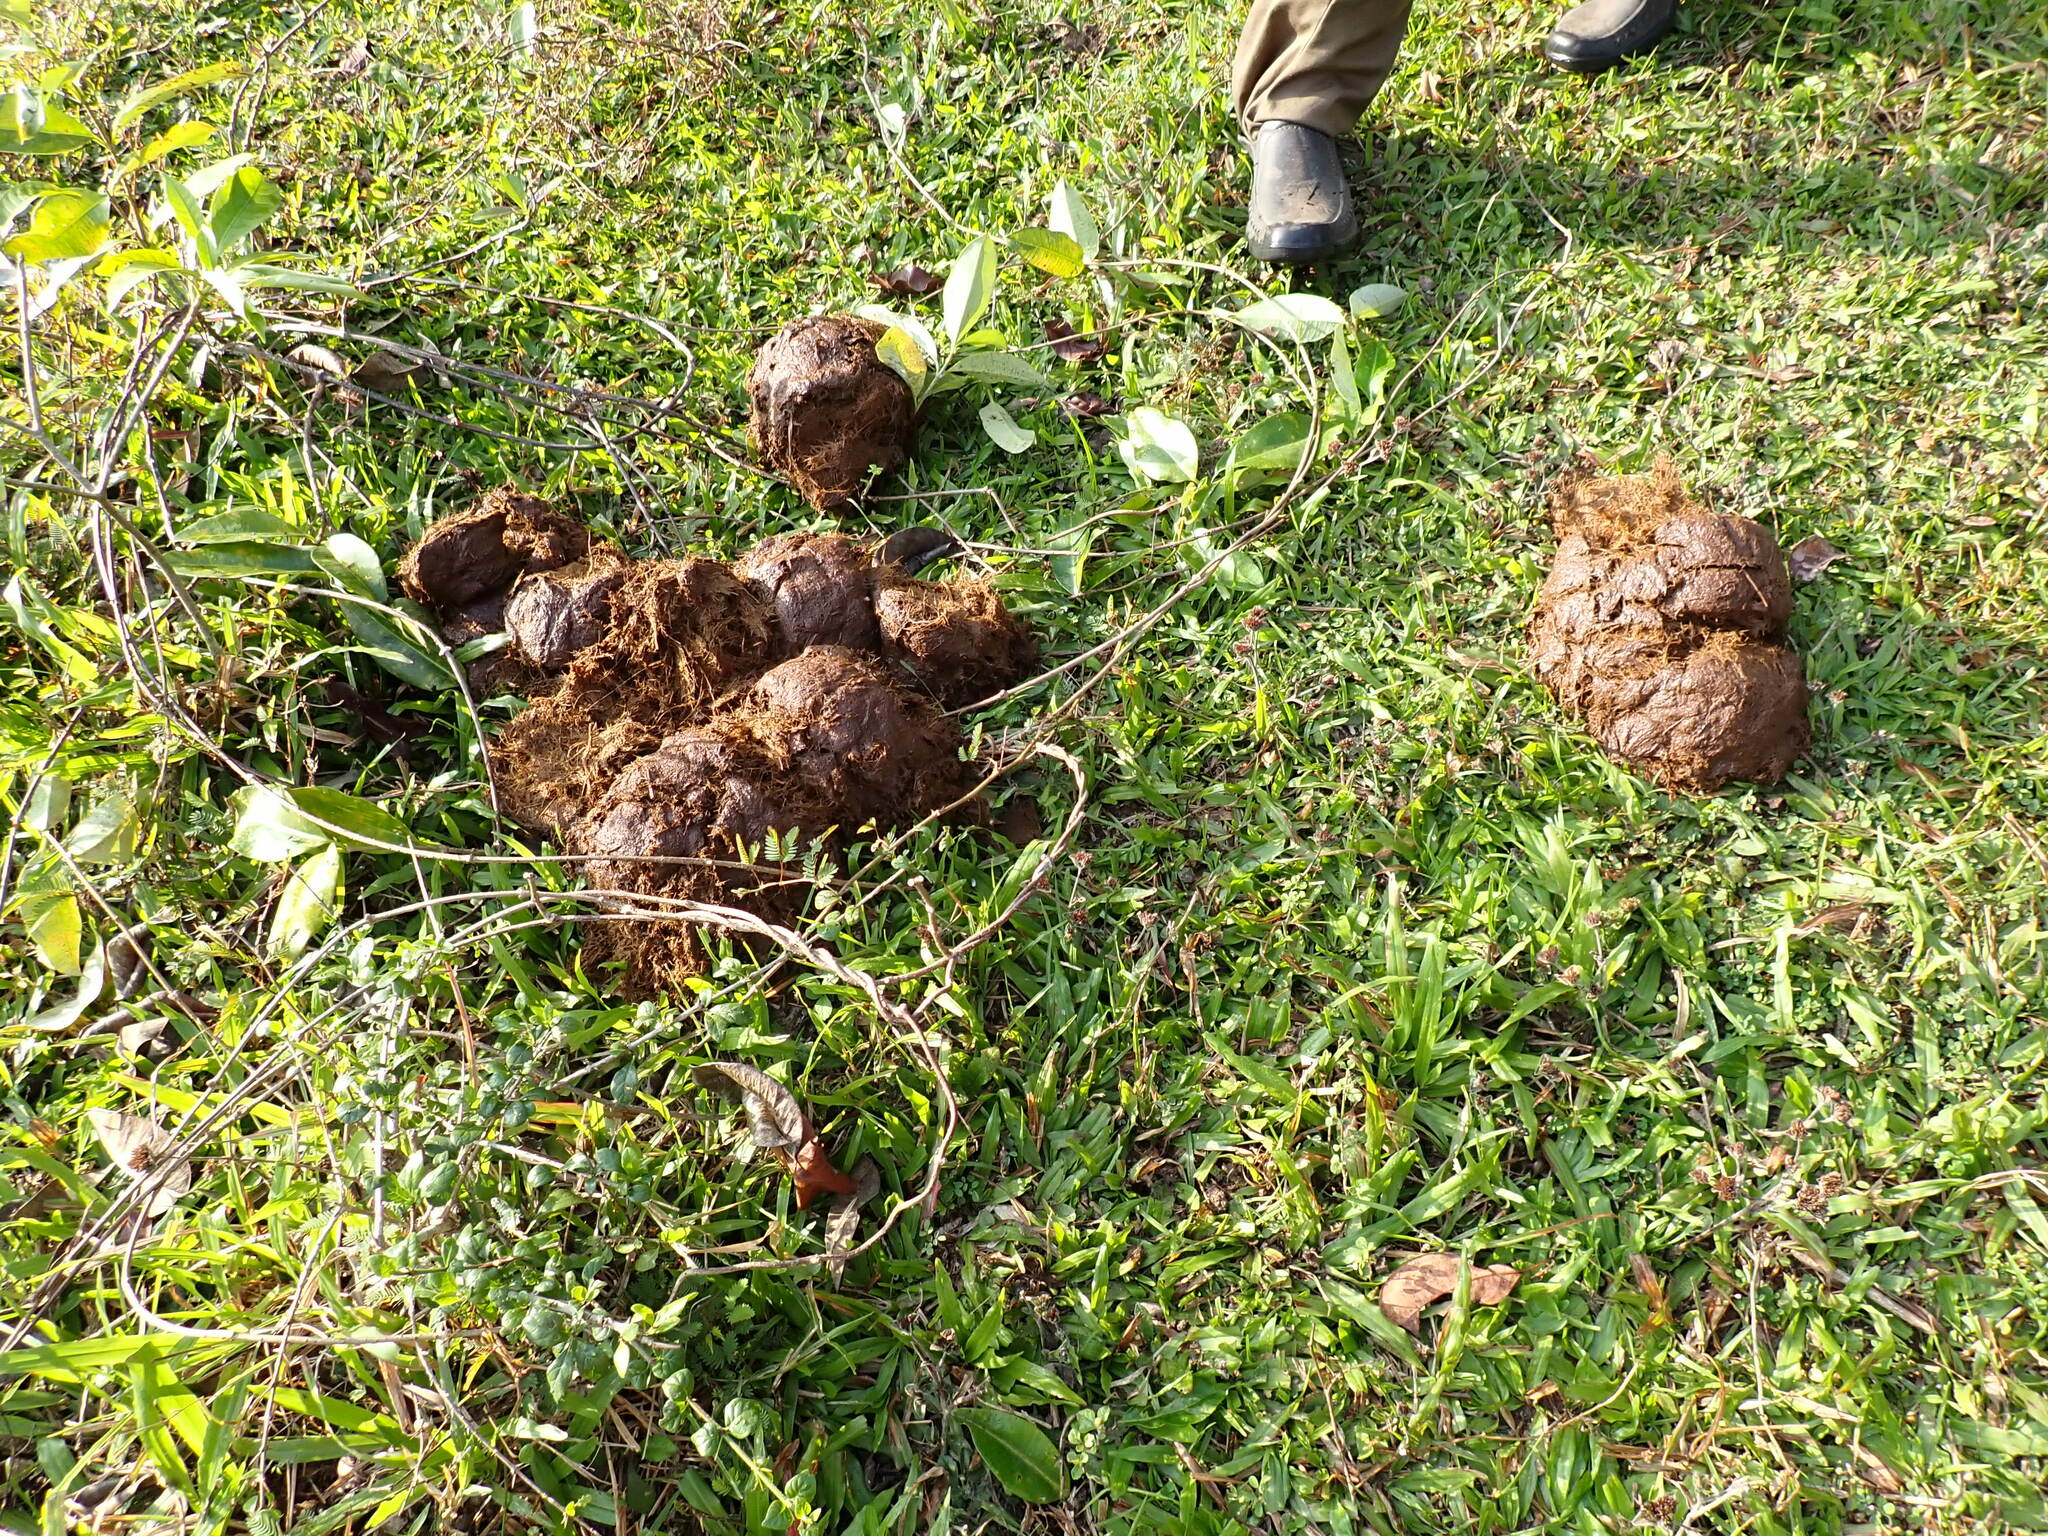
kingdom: Animalia
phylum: Chordata
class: Mammalia
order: Proboscidea
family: Elephantidae
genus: Elephas
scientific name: Elephas maximus
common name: Asian elephant
